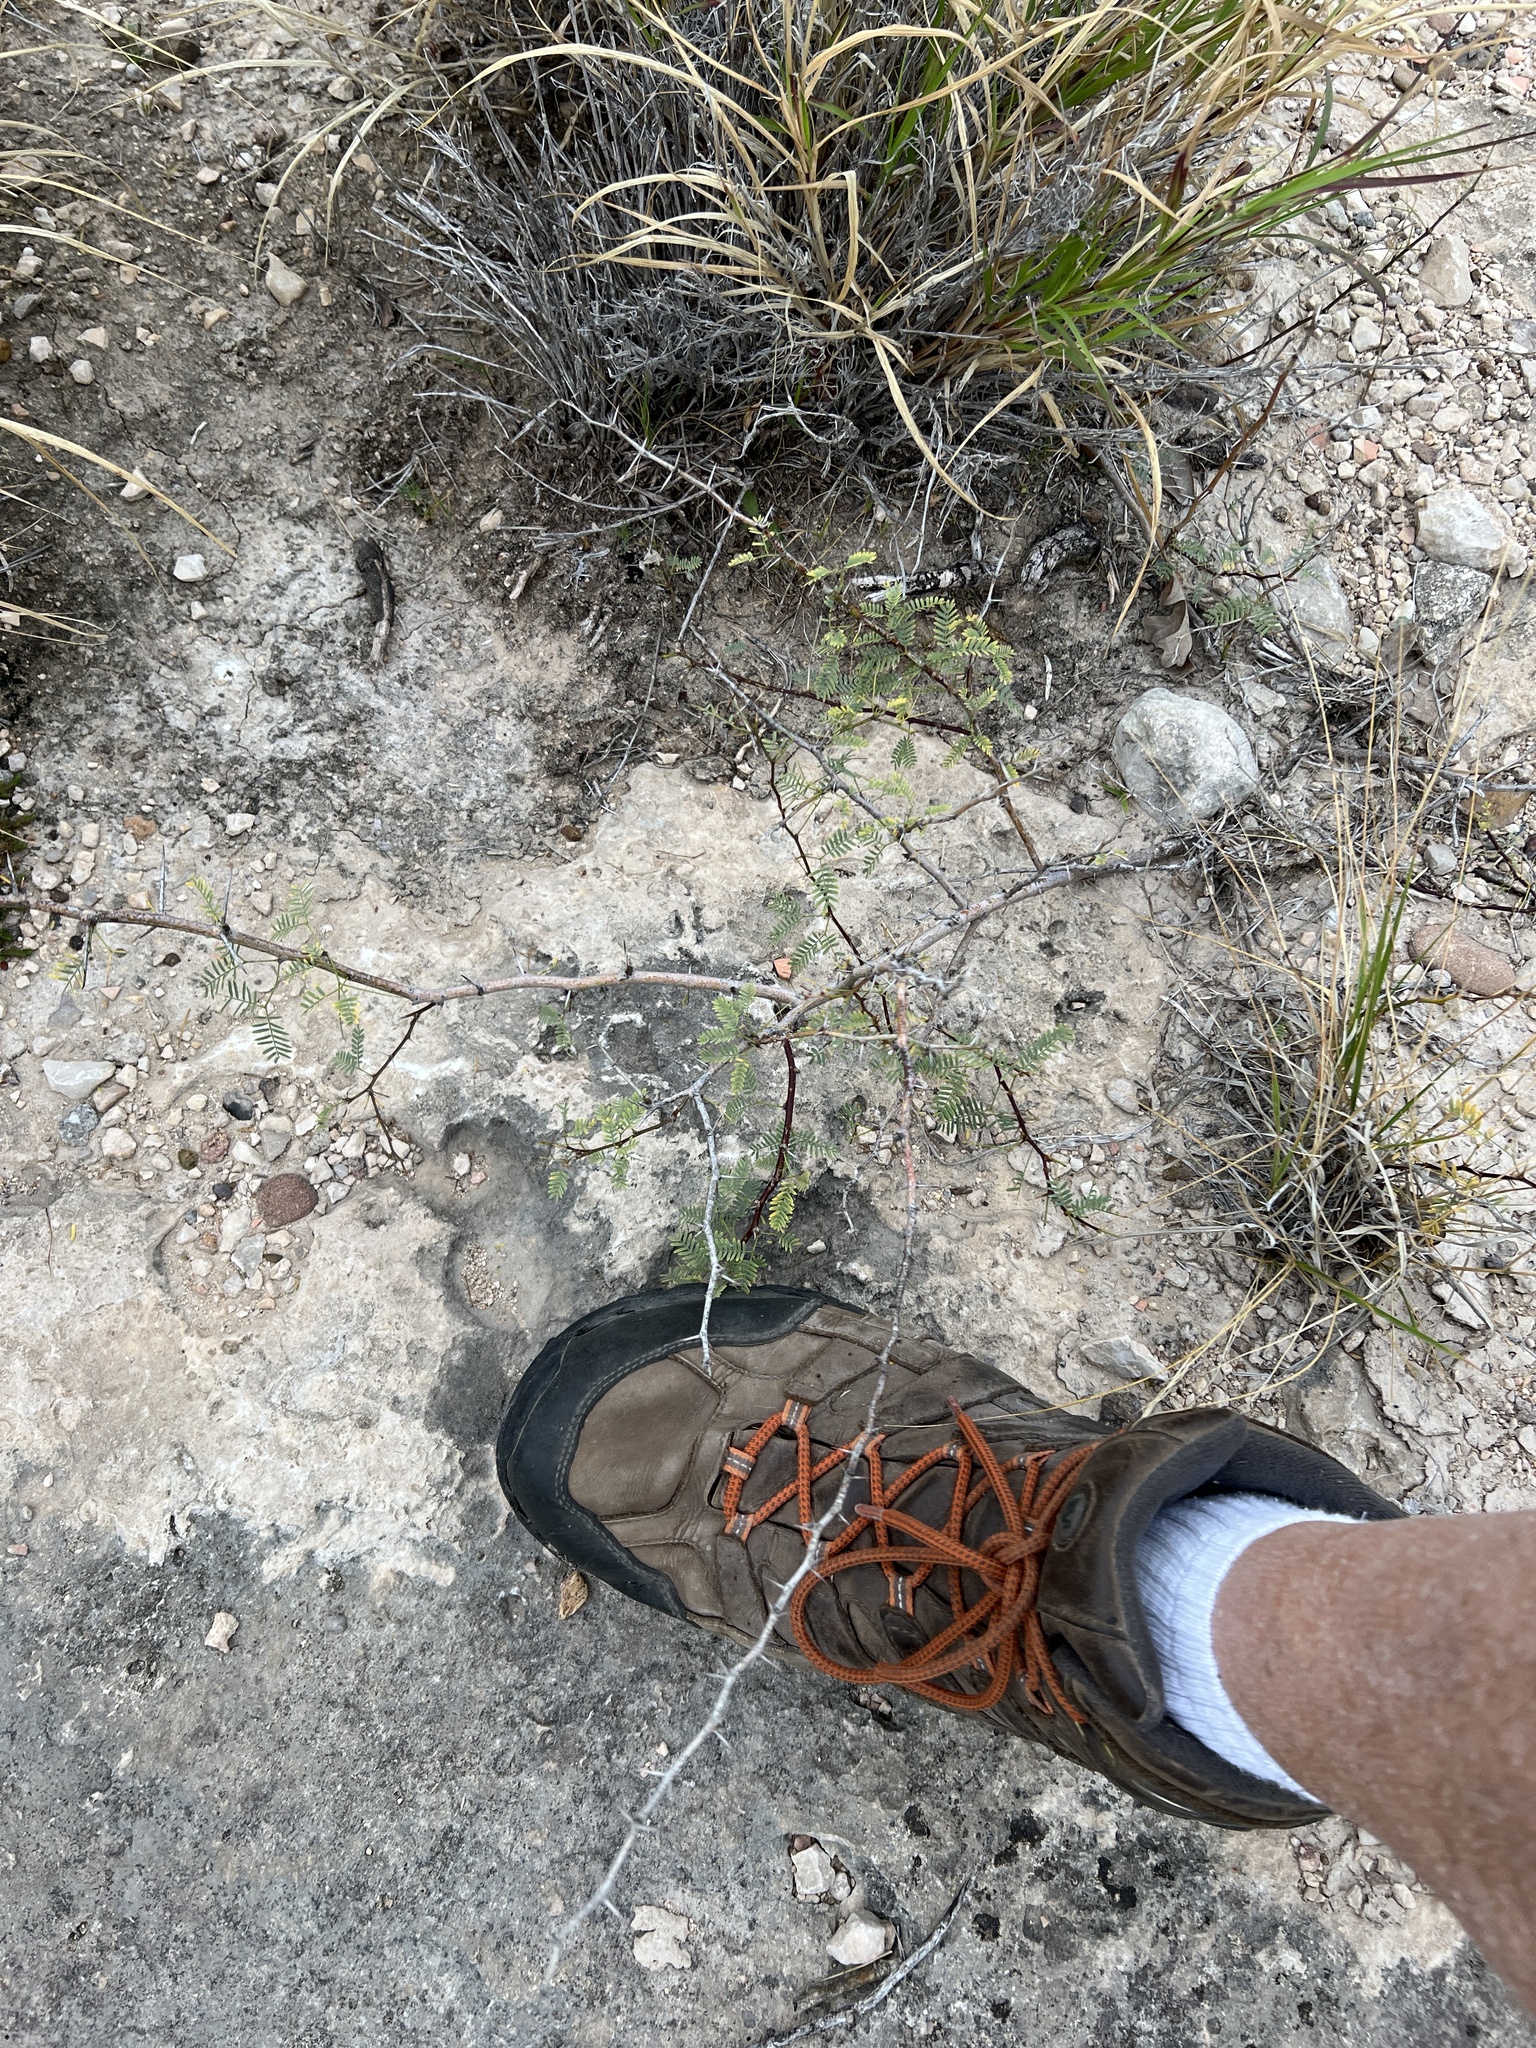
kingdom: Plantae
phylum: Tracheophyta
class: Magnoliopsida
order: Fabales
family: Fabaceae
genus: Prosopis
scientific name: Prosopis glandulosa
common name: Honey mesquite
